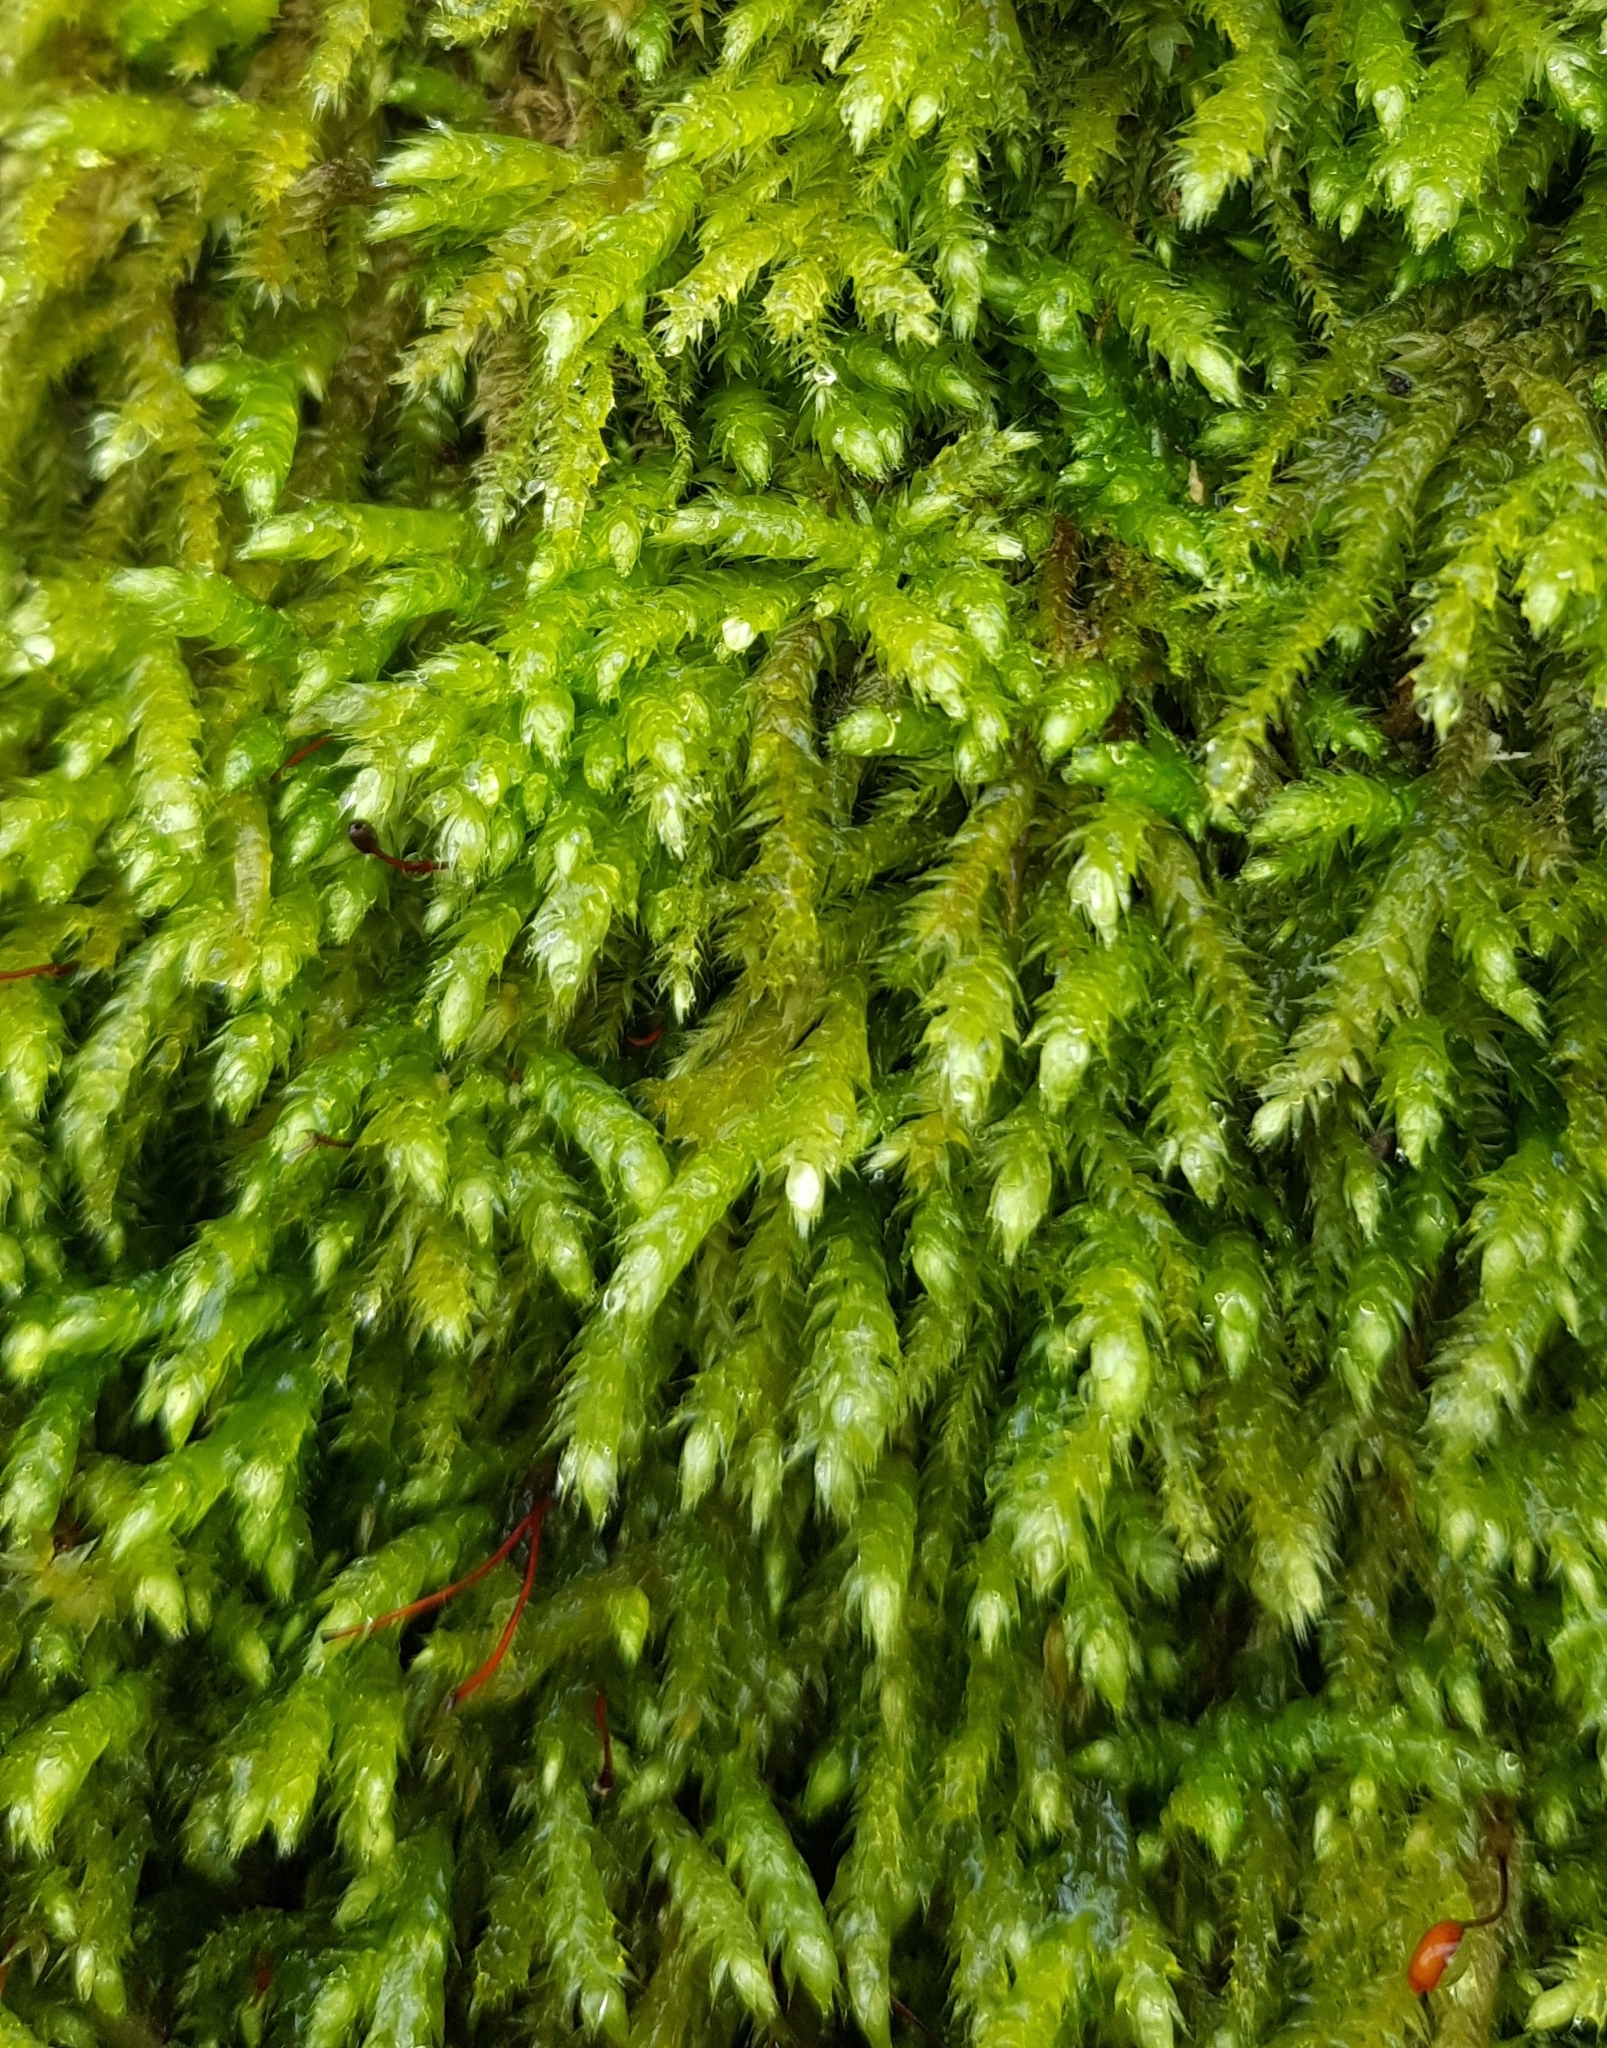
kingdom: Plantae
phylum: Bryophyta
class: Bryopsida
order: Hypnales
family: Brachytheciaceae
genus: Brachythecium
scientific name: Brachythecium rutabulum
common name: Rough-stalked feather-moss
